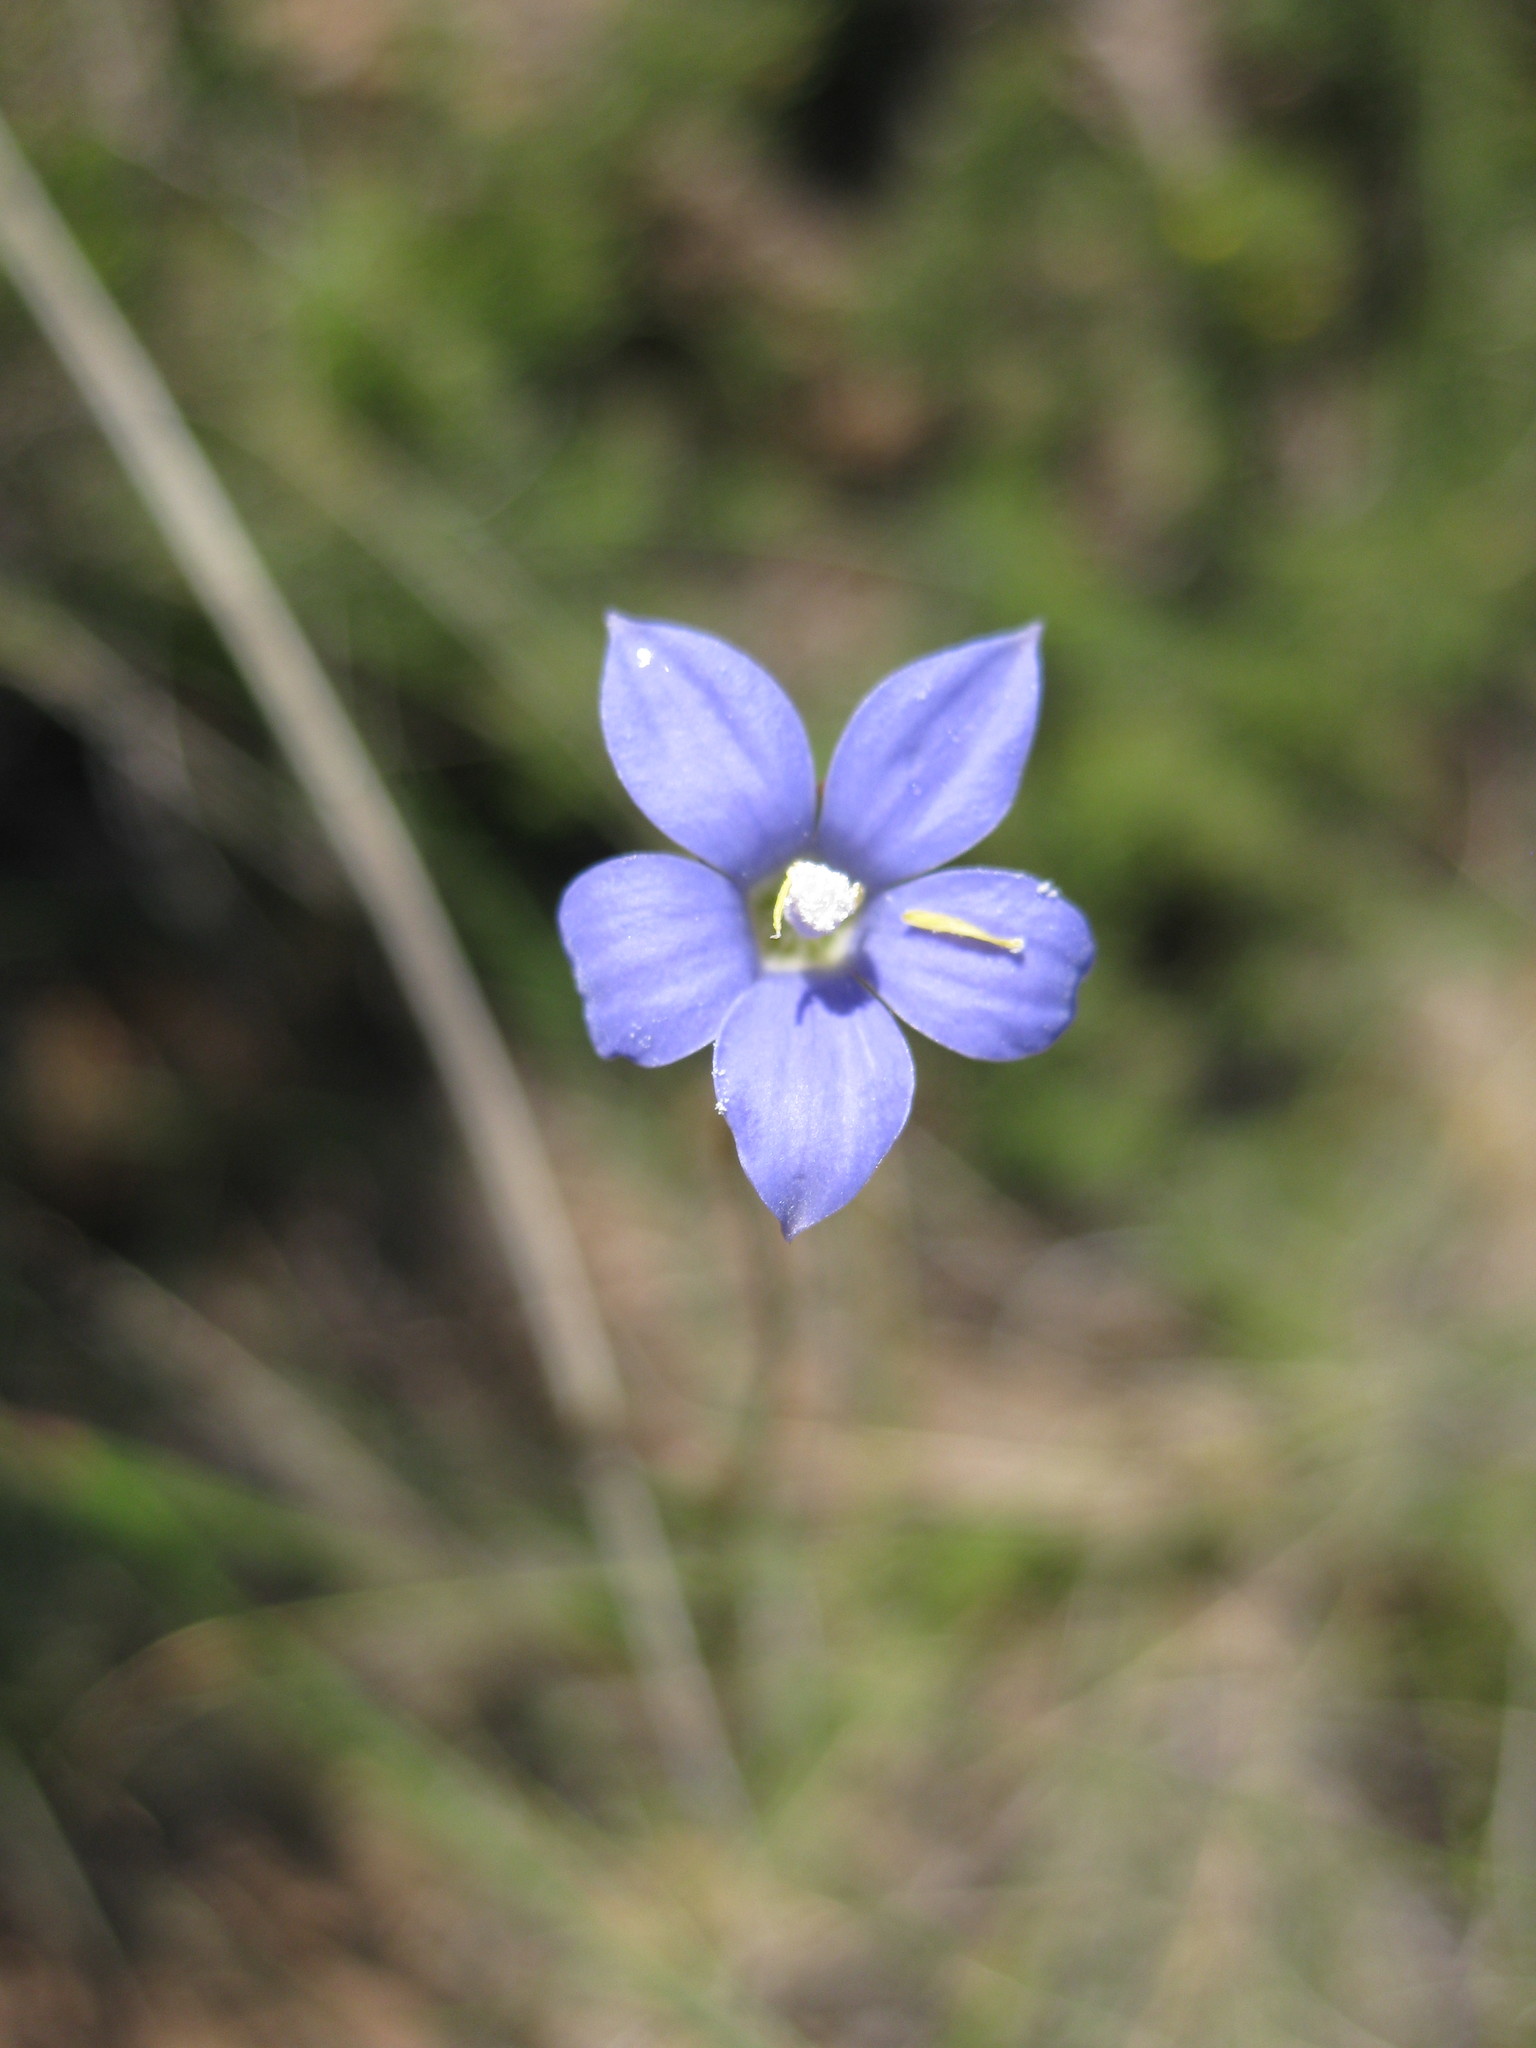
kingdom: Plantae
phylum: Tracheophyta
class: Magnoliopsida
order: Asterales
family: Campanulaceae
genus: Wahlenbergia
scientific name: Wahlenbergia
